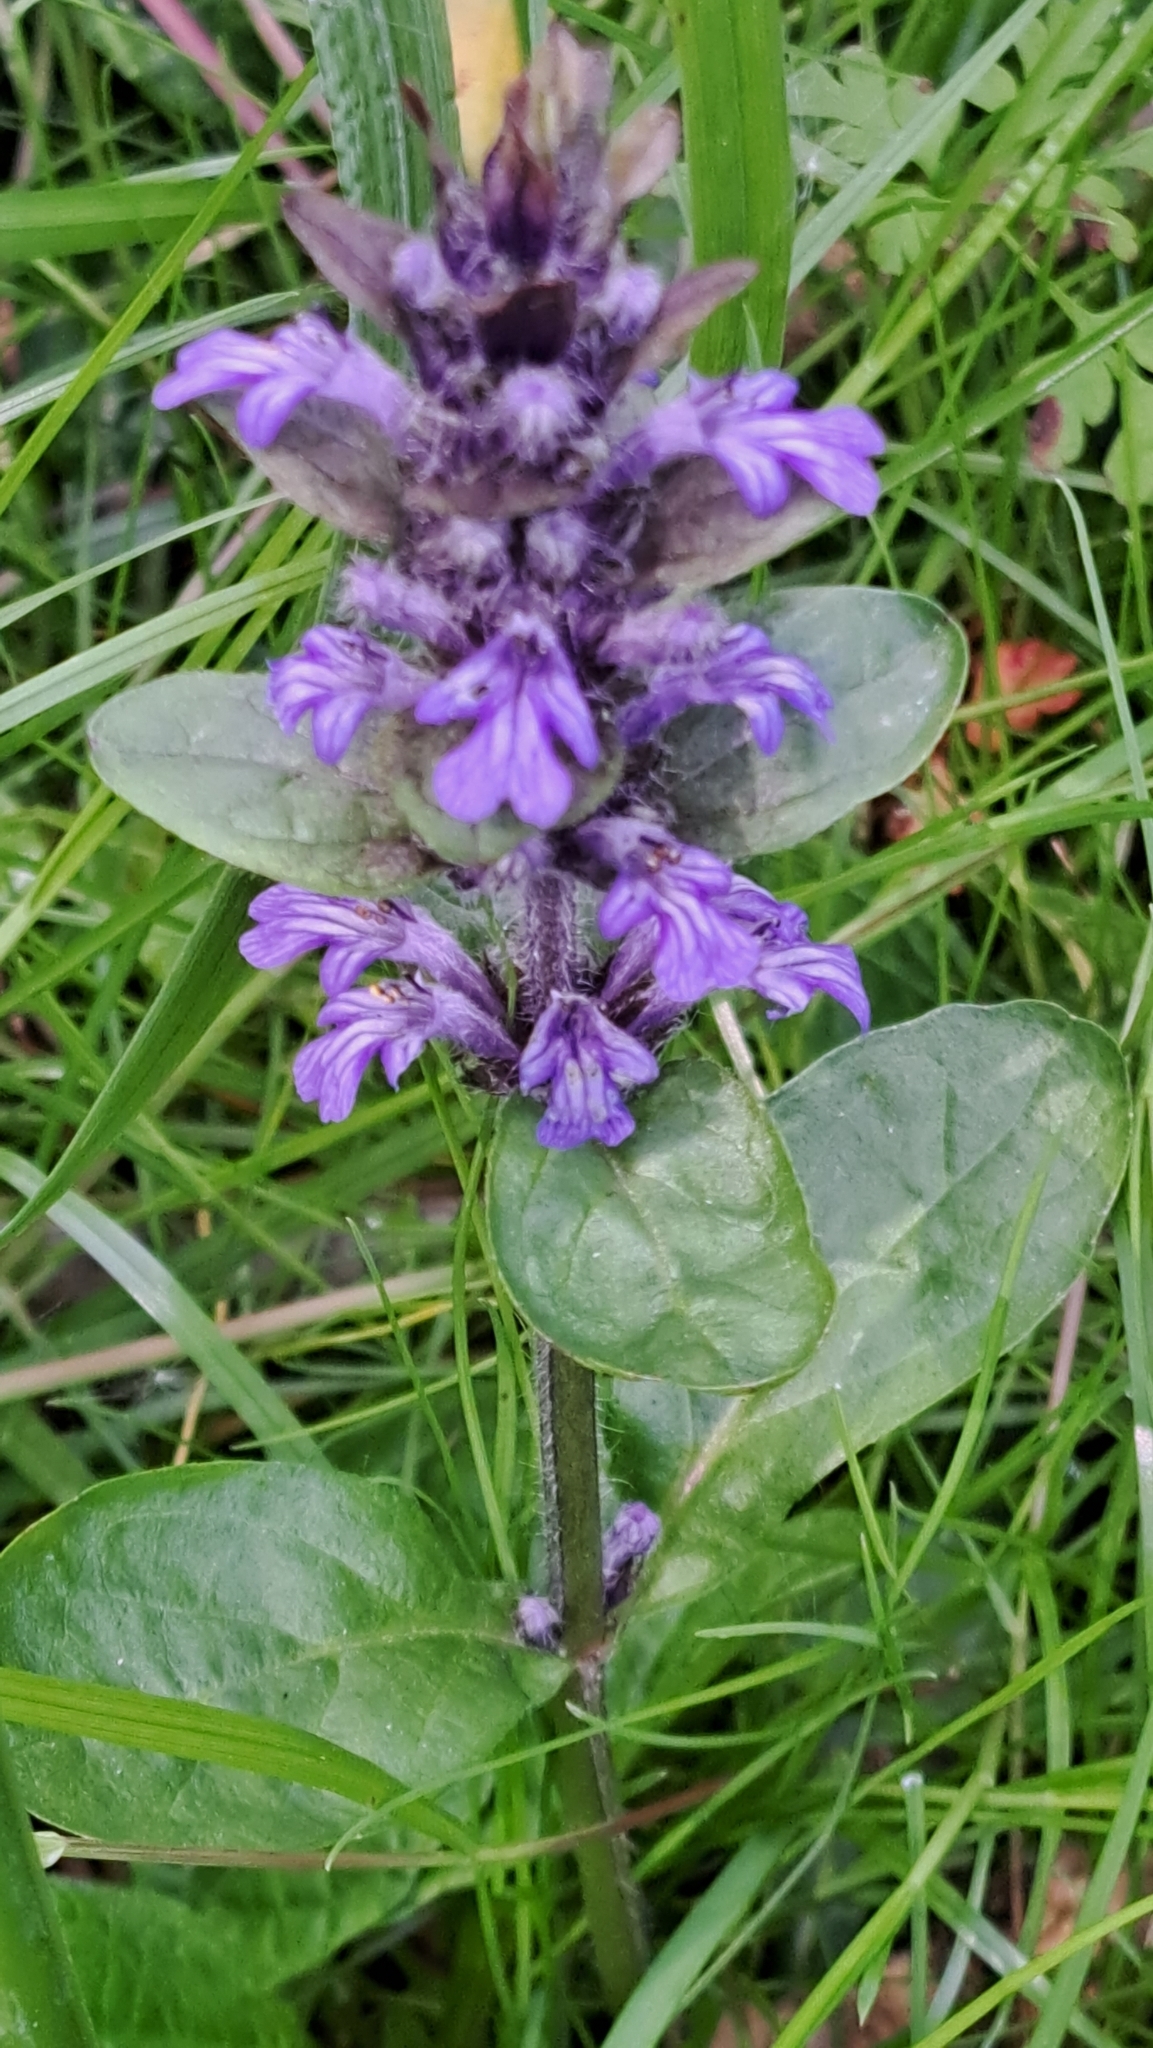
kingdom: Plantae
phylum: Tracheophyta
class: Magnoliopsida
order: Lamiales
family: Lamiaceae
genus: Ajuga
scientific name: Ajuga reptans
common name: Bugle
